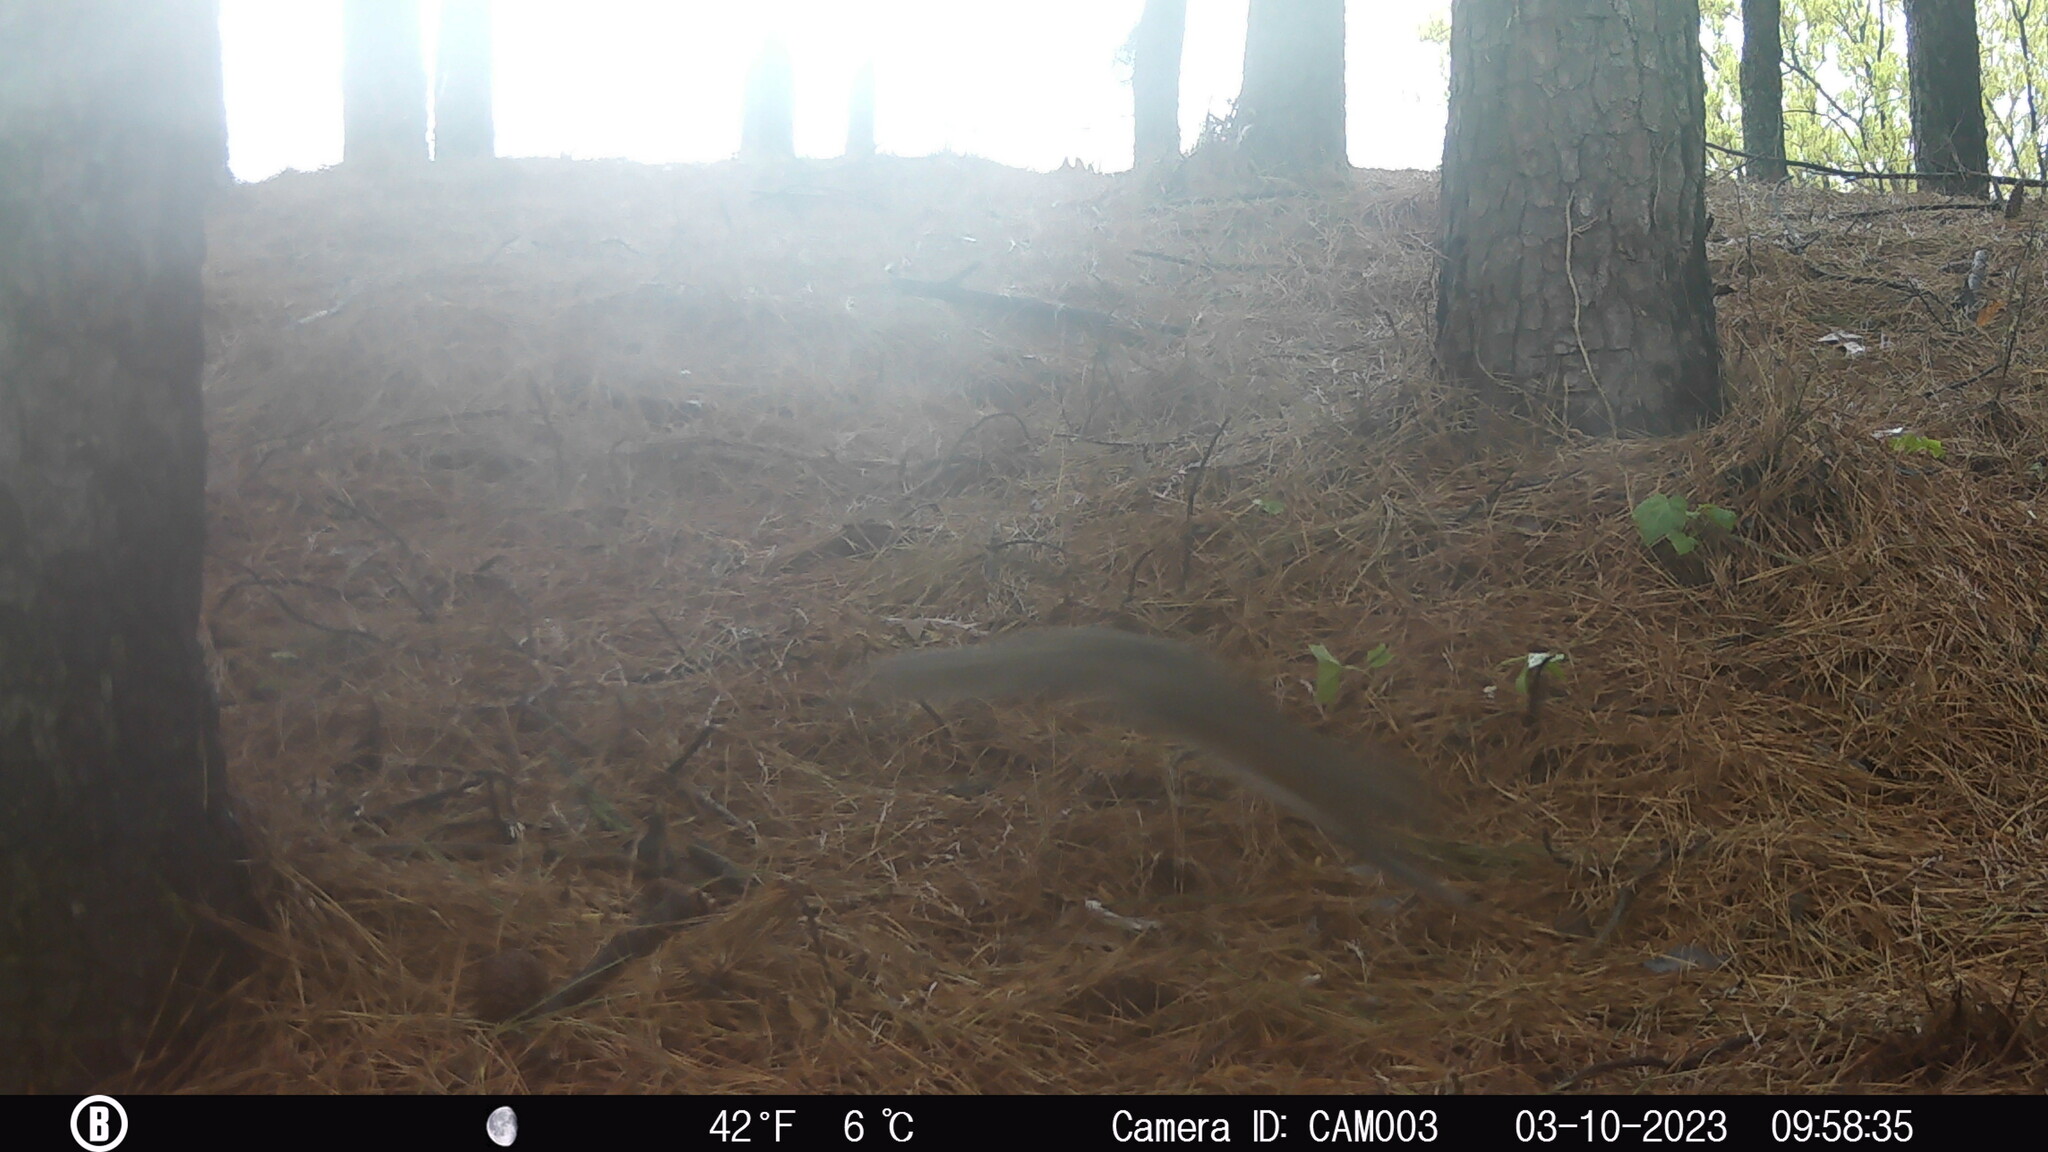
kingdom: Animalia
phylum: Chordata
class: Mammalia
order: Rodentia
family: Sciuridae
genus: Sciurus
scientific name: Sciurus carolinensis
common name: Eastern gray squirrel
